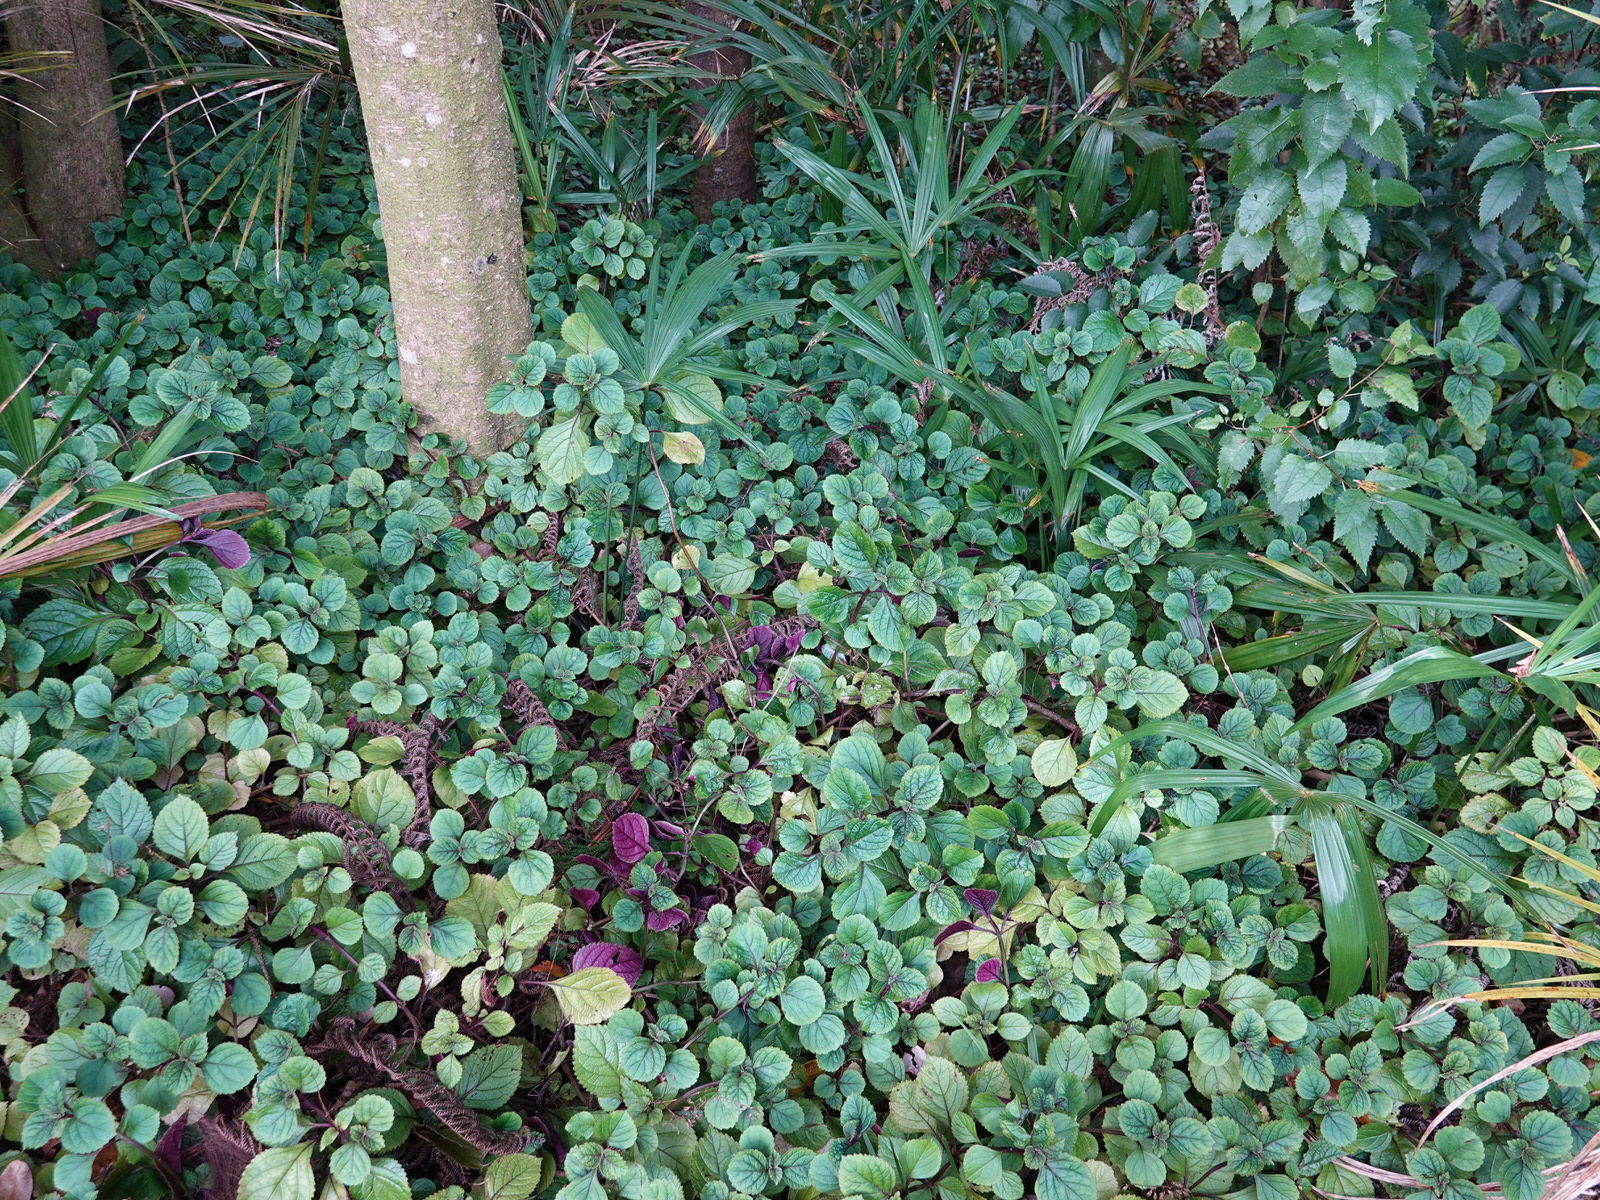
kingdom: Plantae
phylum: Tracheophyta
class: Magnoliopsida
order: Lamiales
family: Lamiaceae
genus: Plectranthus
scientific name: Plectranthus ciliatus
